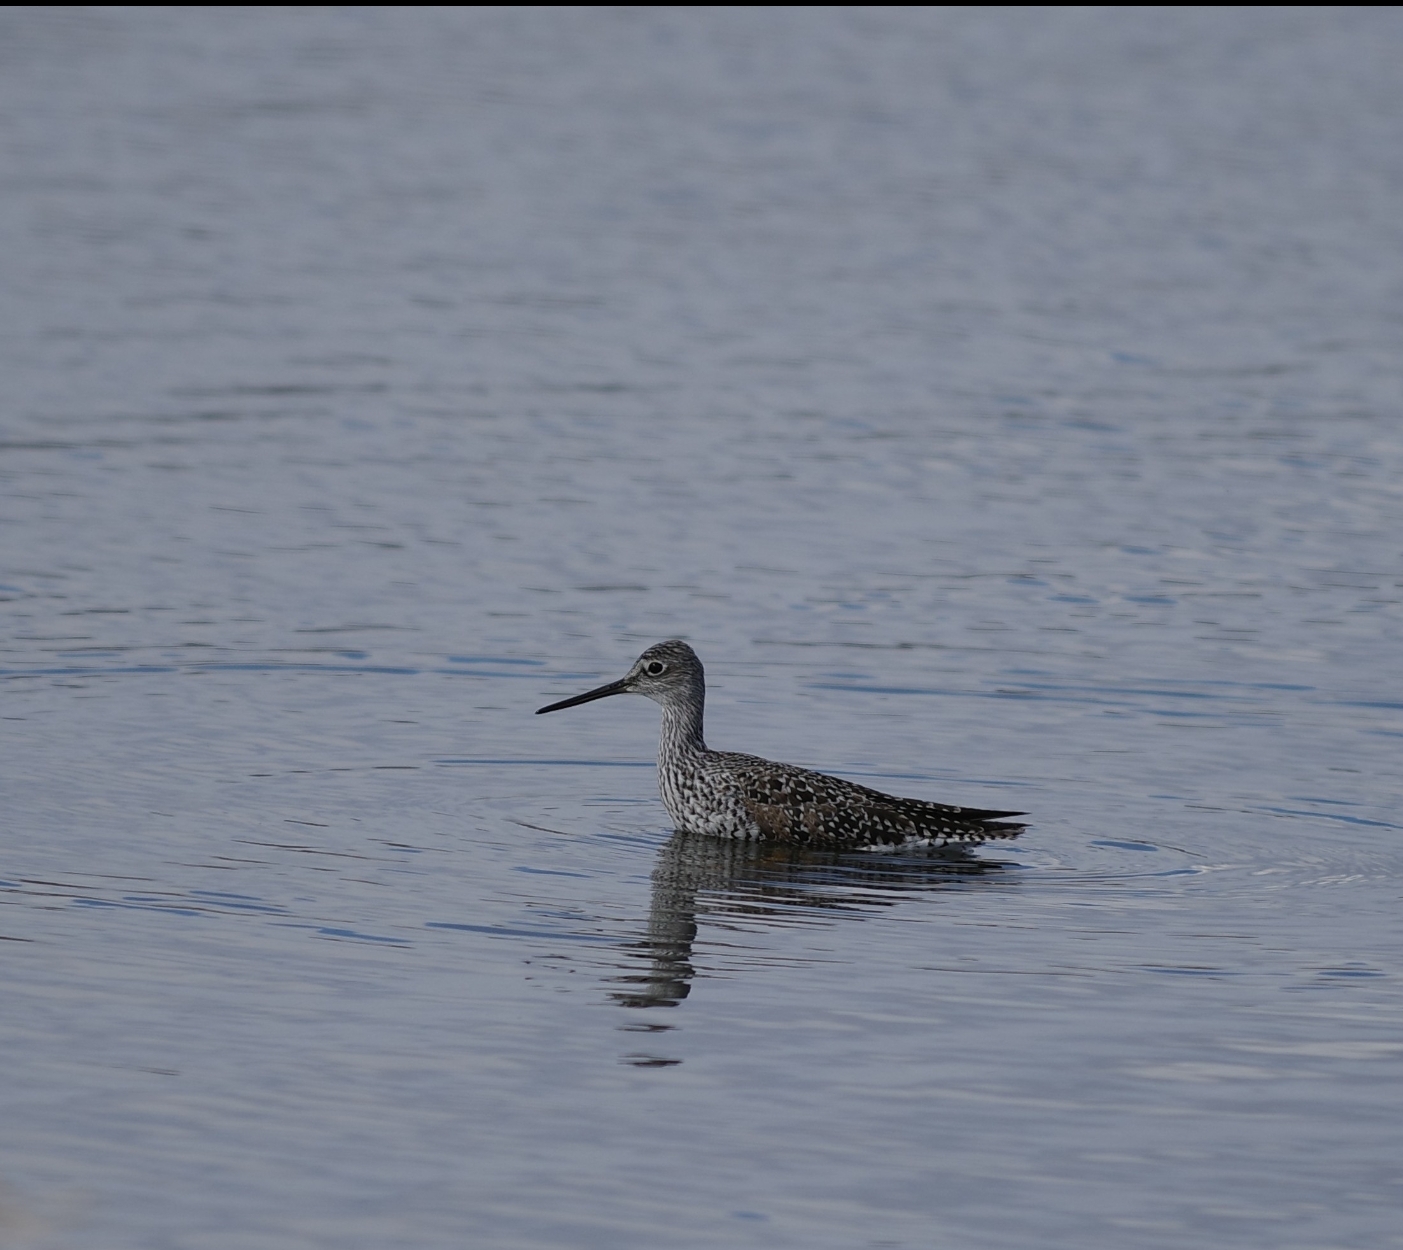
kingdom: Animalia
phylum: Chordata
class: Aves
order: Charadriiformes
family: Scolopacidae
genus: Tringa
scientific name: Tringa melanoleuca
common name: Greater yellowlegs
